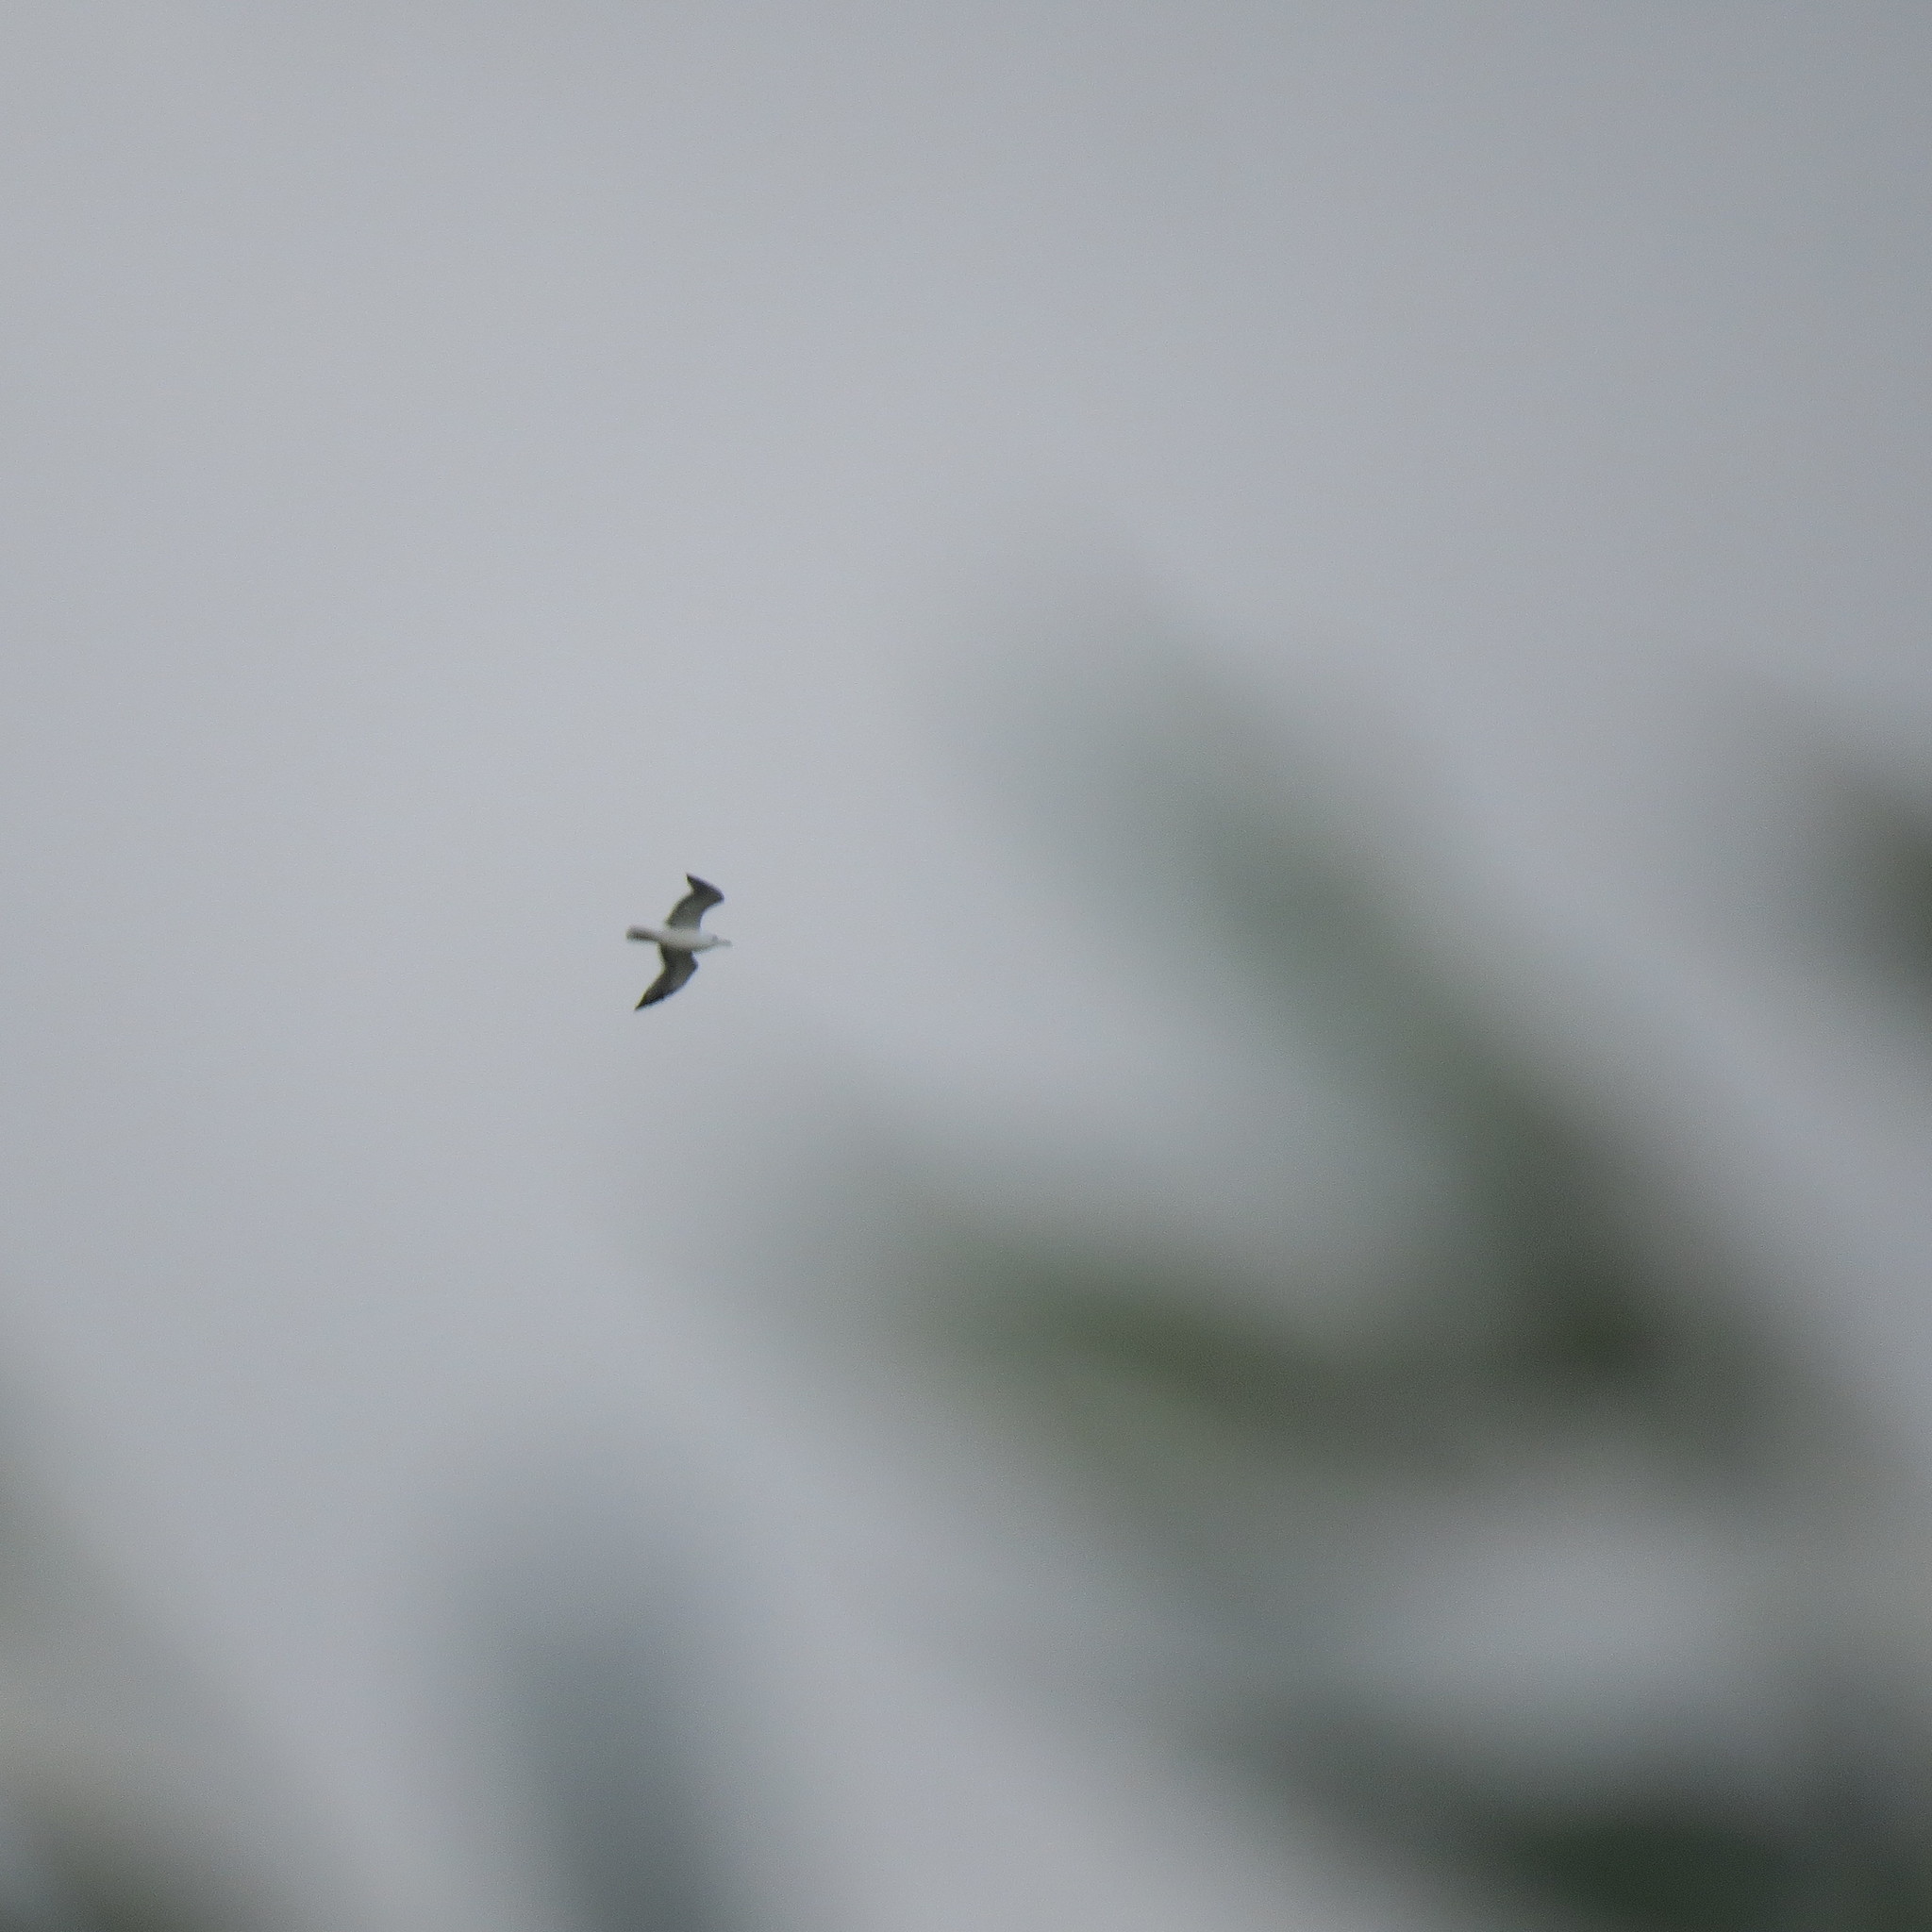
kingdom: Animalia
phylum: Chordata
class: Aves
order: Charadriiformes
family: Laridae
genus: Larus
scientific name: Larus
